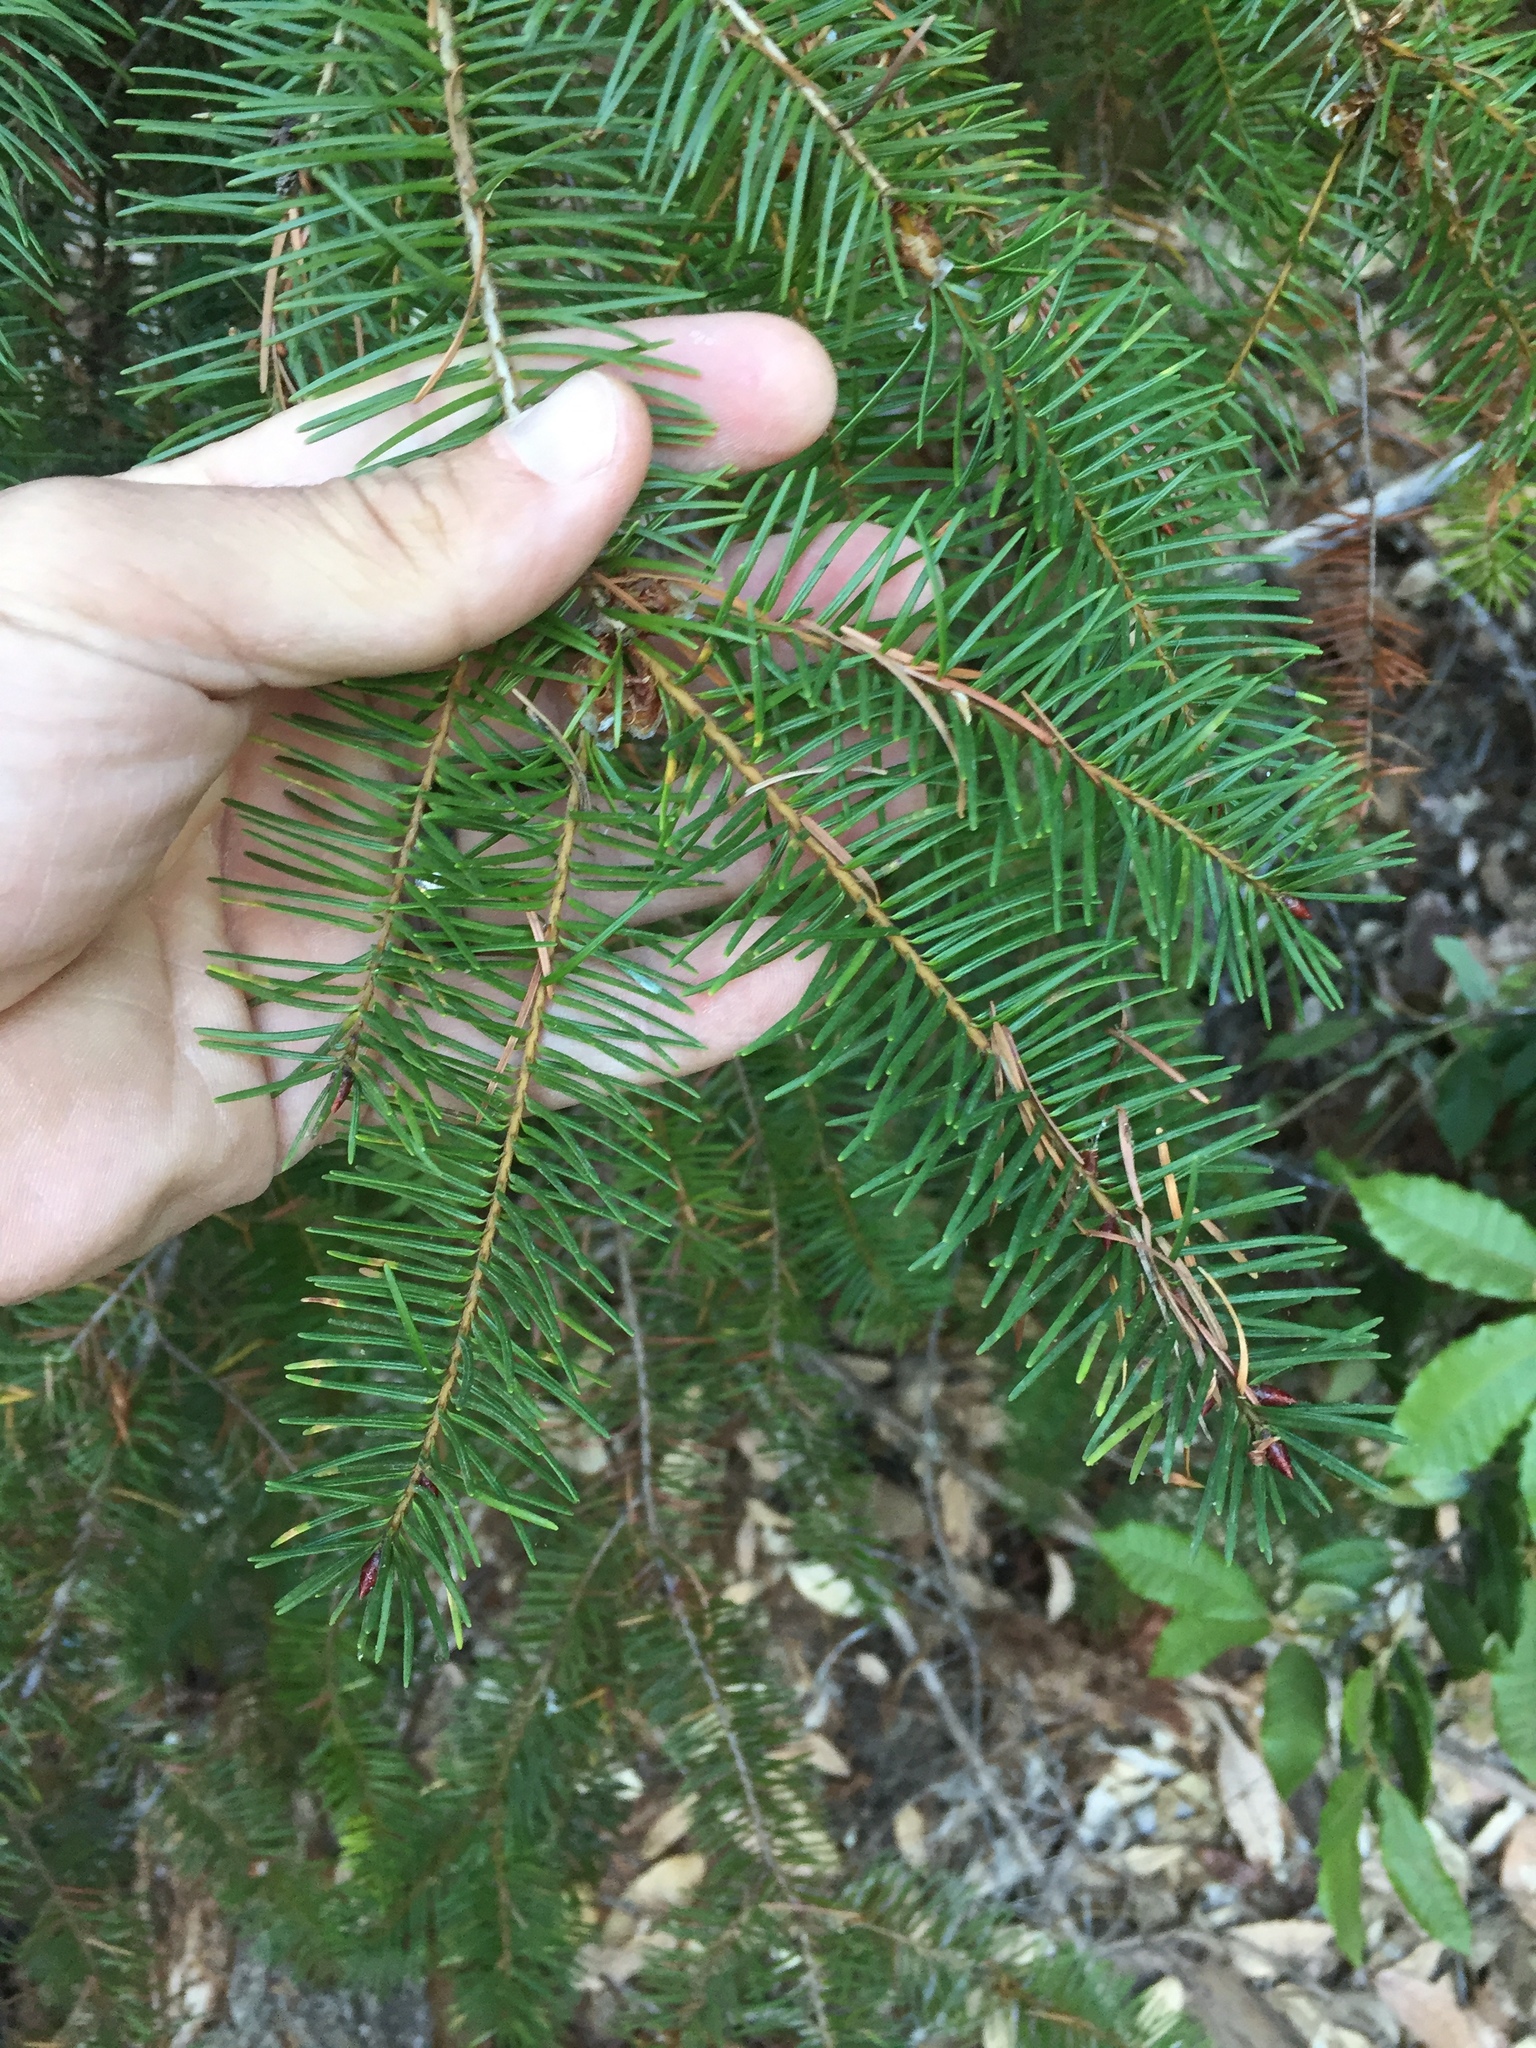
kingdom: Plantae
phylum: Tracheophyta
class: Pinopsida
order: Pinales
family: Pinaceae
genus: Pseudotsuga
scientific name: Pseudotsuga menziesii
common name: Douglas fir
